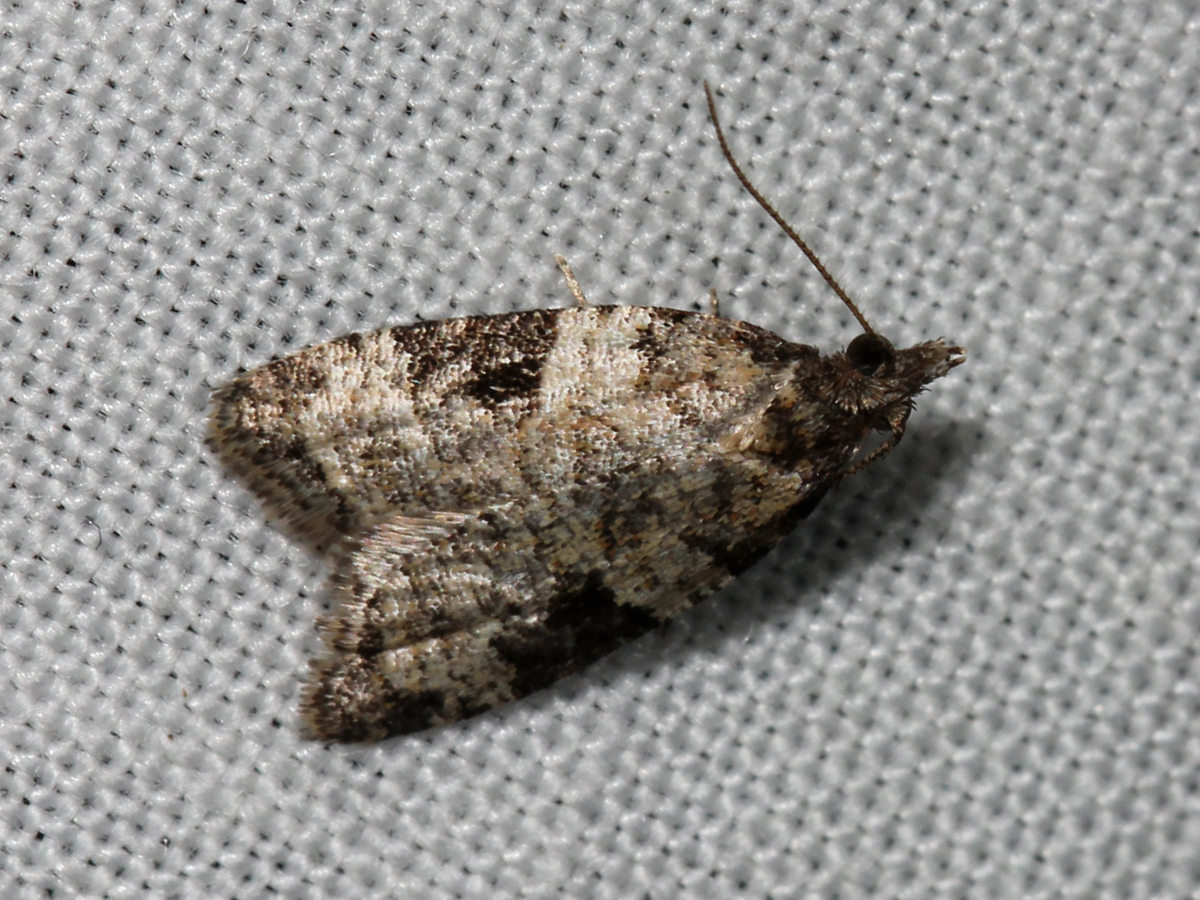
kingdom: Animalia
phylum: Arthropoda
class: Insecta
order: Lepidoptera
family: Tortricidae
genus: Anopina
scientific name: Anopina triangulana
